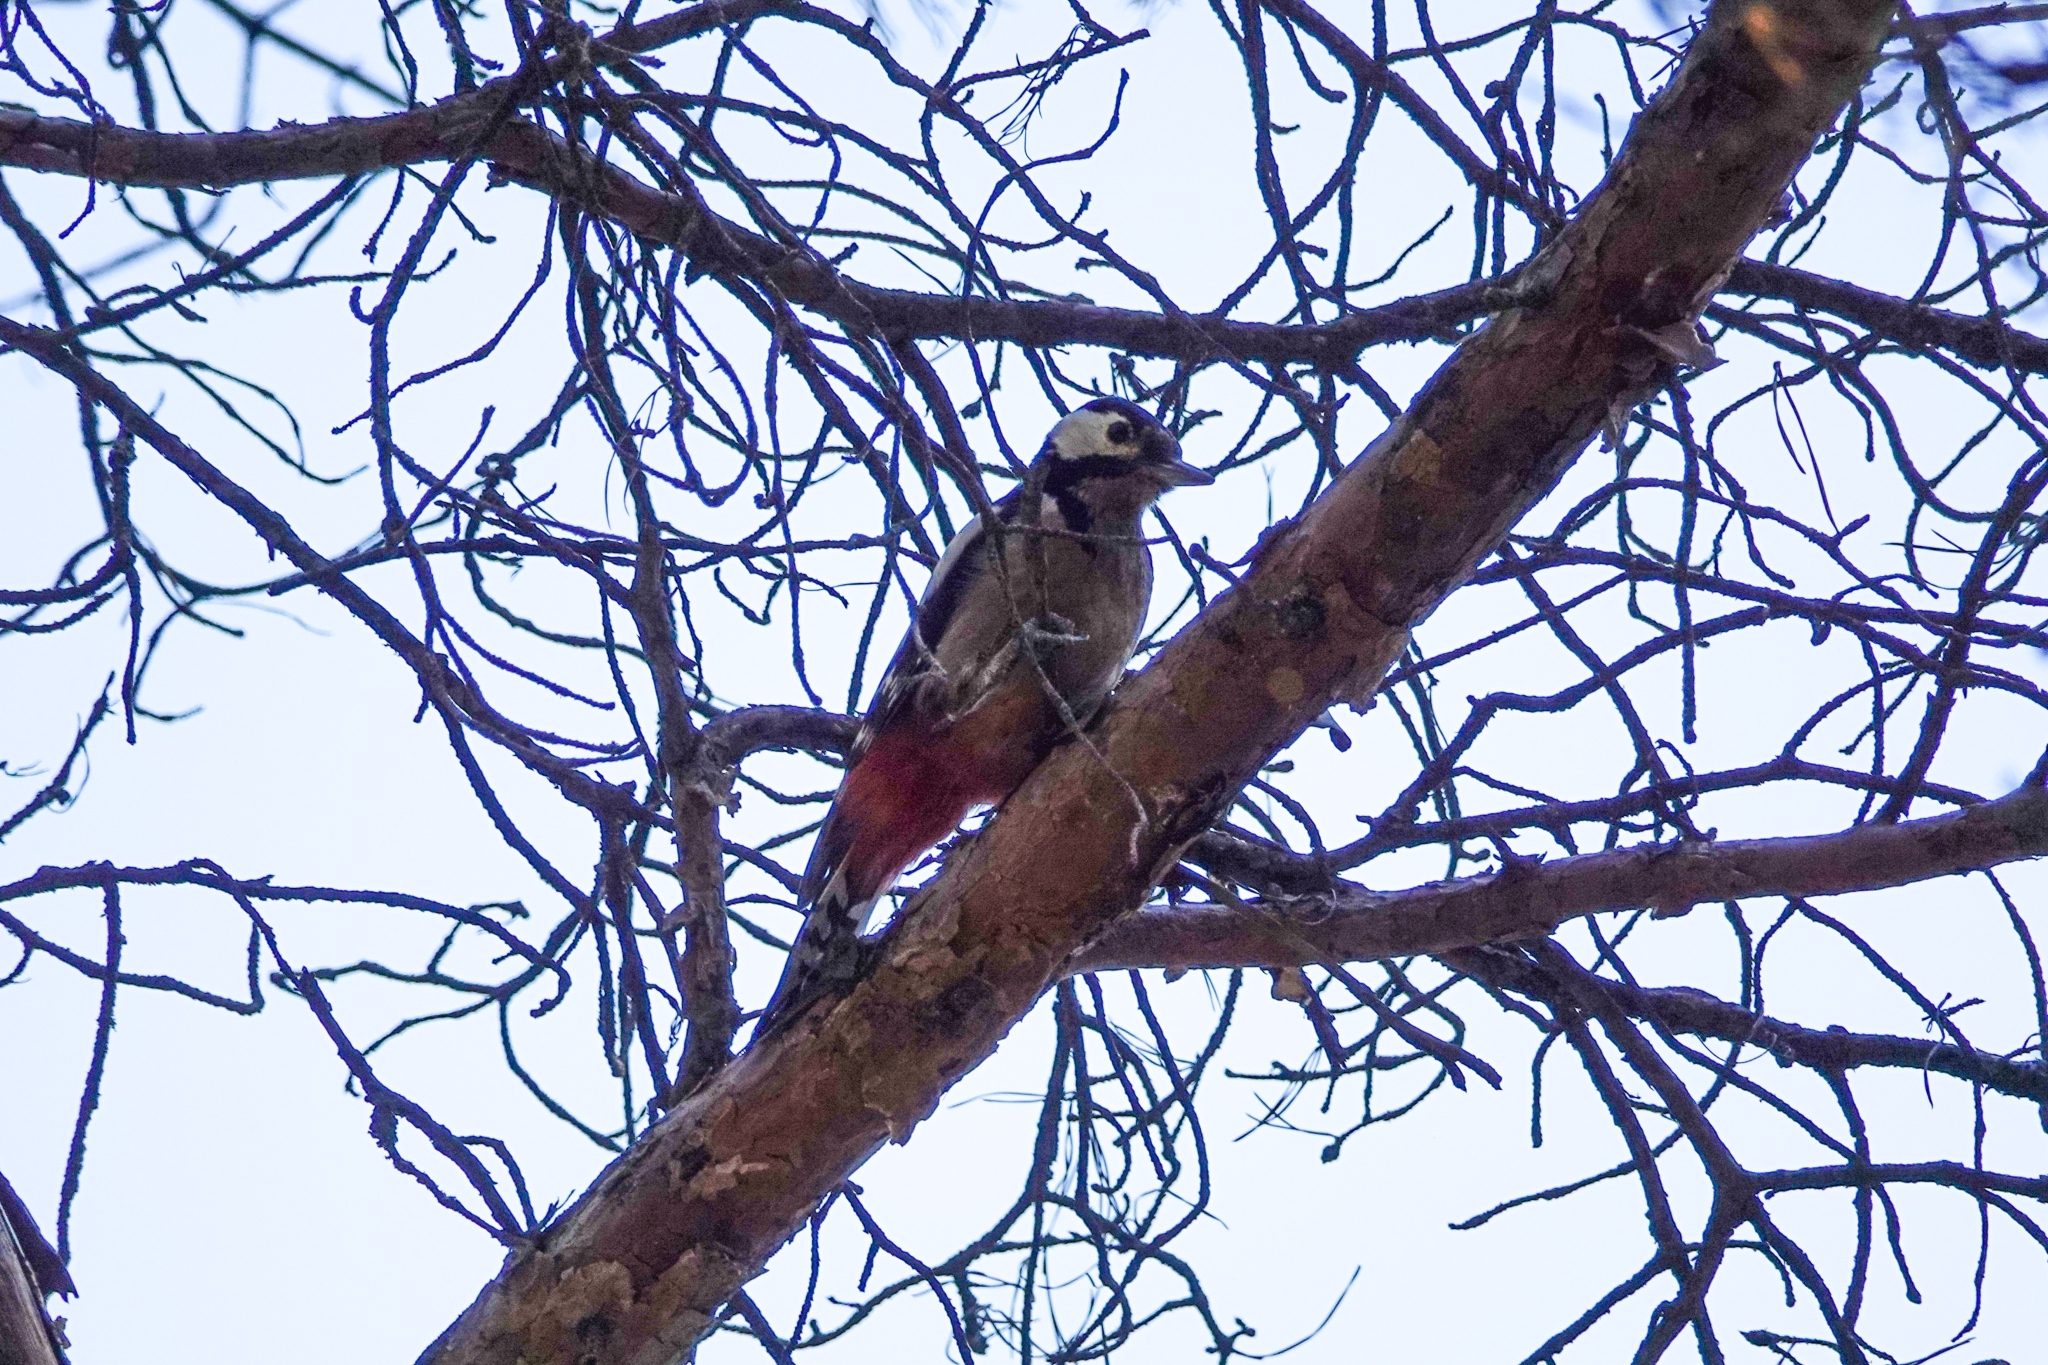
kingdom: Animalia
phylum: Chordata
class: Aves
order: Piciformes
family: Picidae
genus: Dendrocopos
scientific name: Dendrocopos major
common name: Great spotted woodpecker
